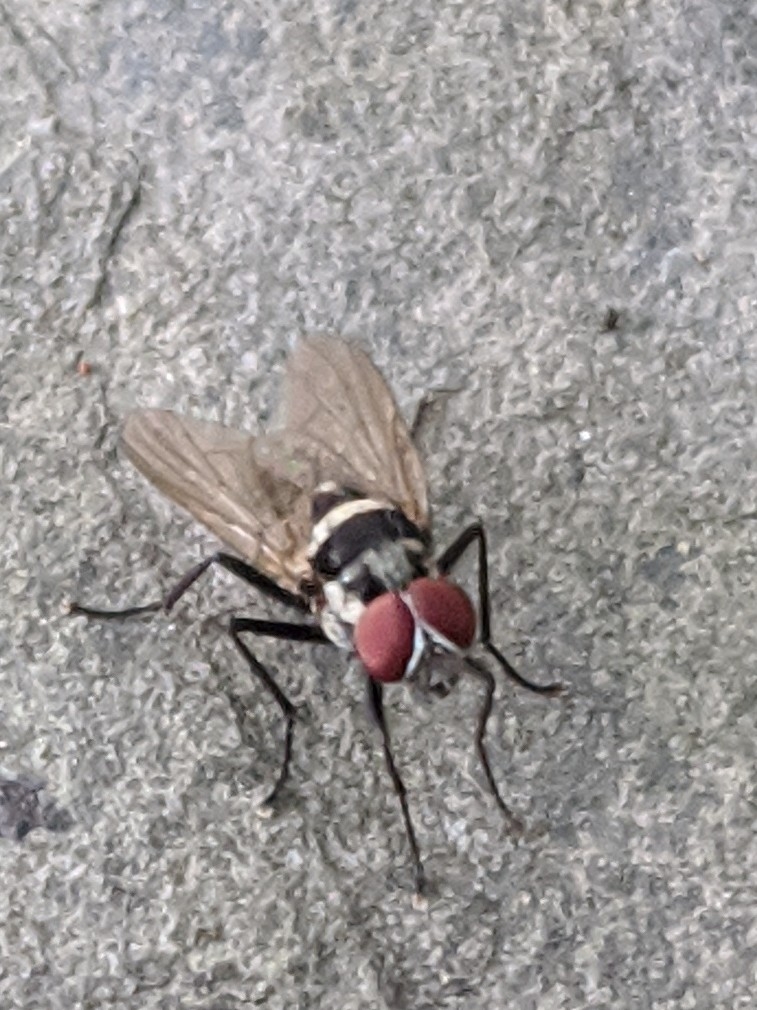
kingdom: Animalia
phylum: Arthropoda
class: Insecta
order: Diptera
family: Anthomyiidae
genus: Anthomyia
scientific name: Anthomyia oculifera
